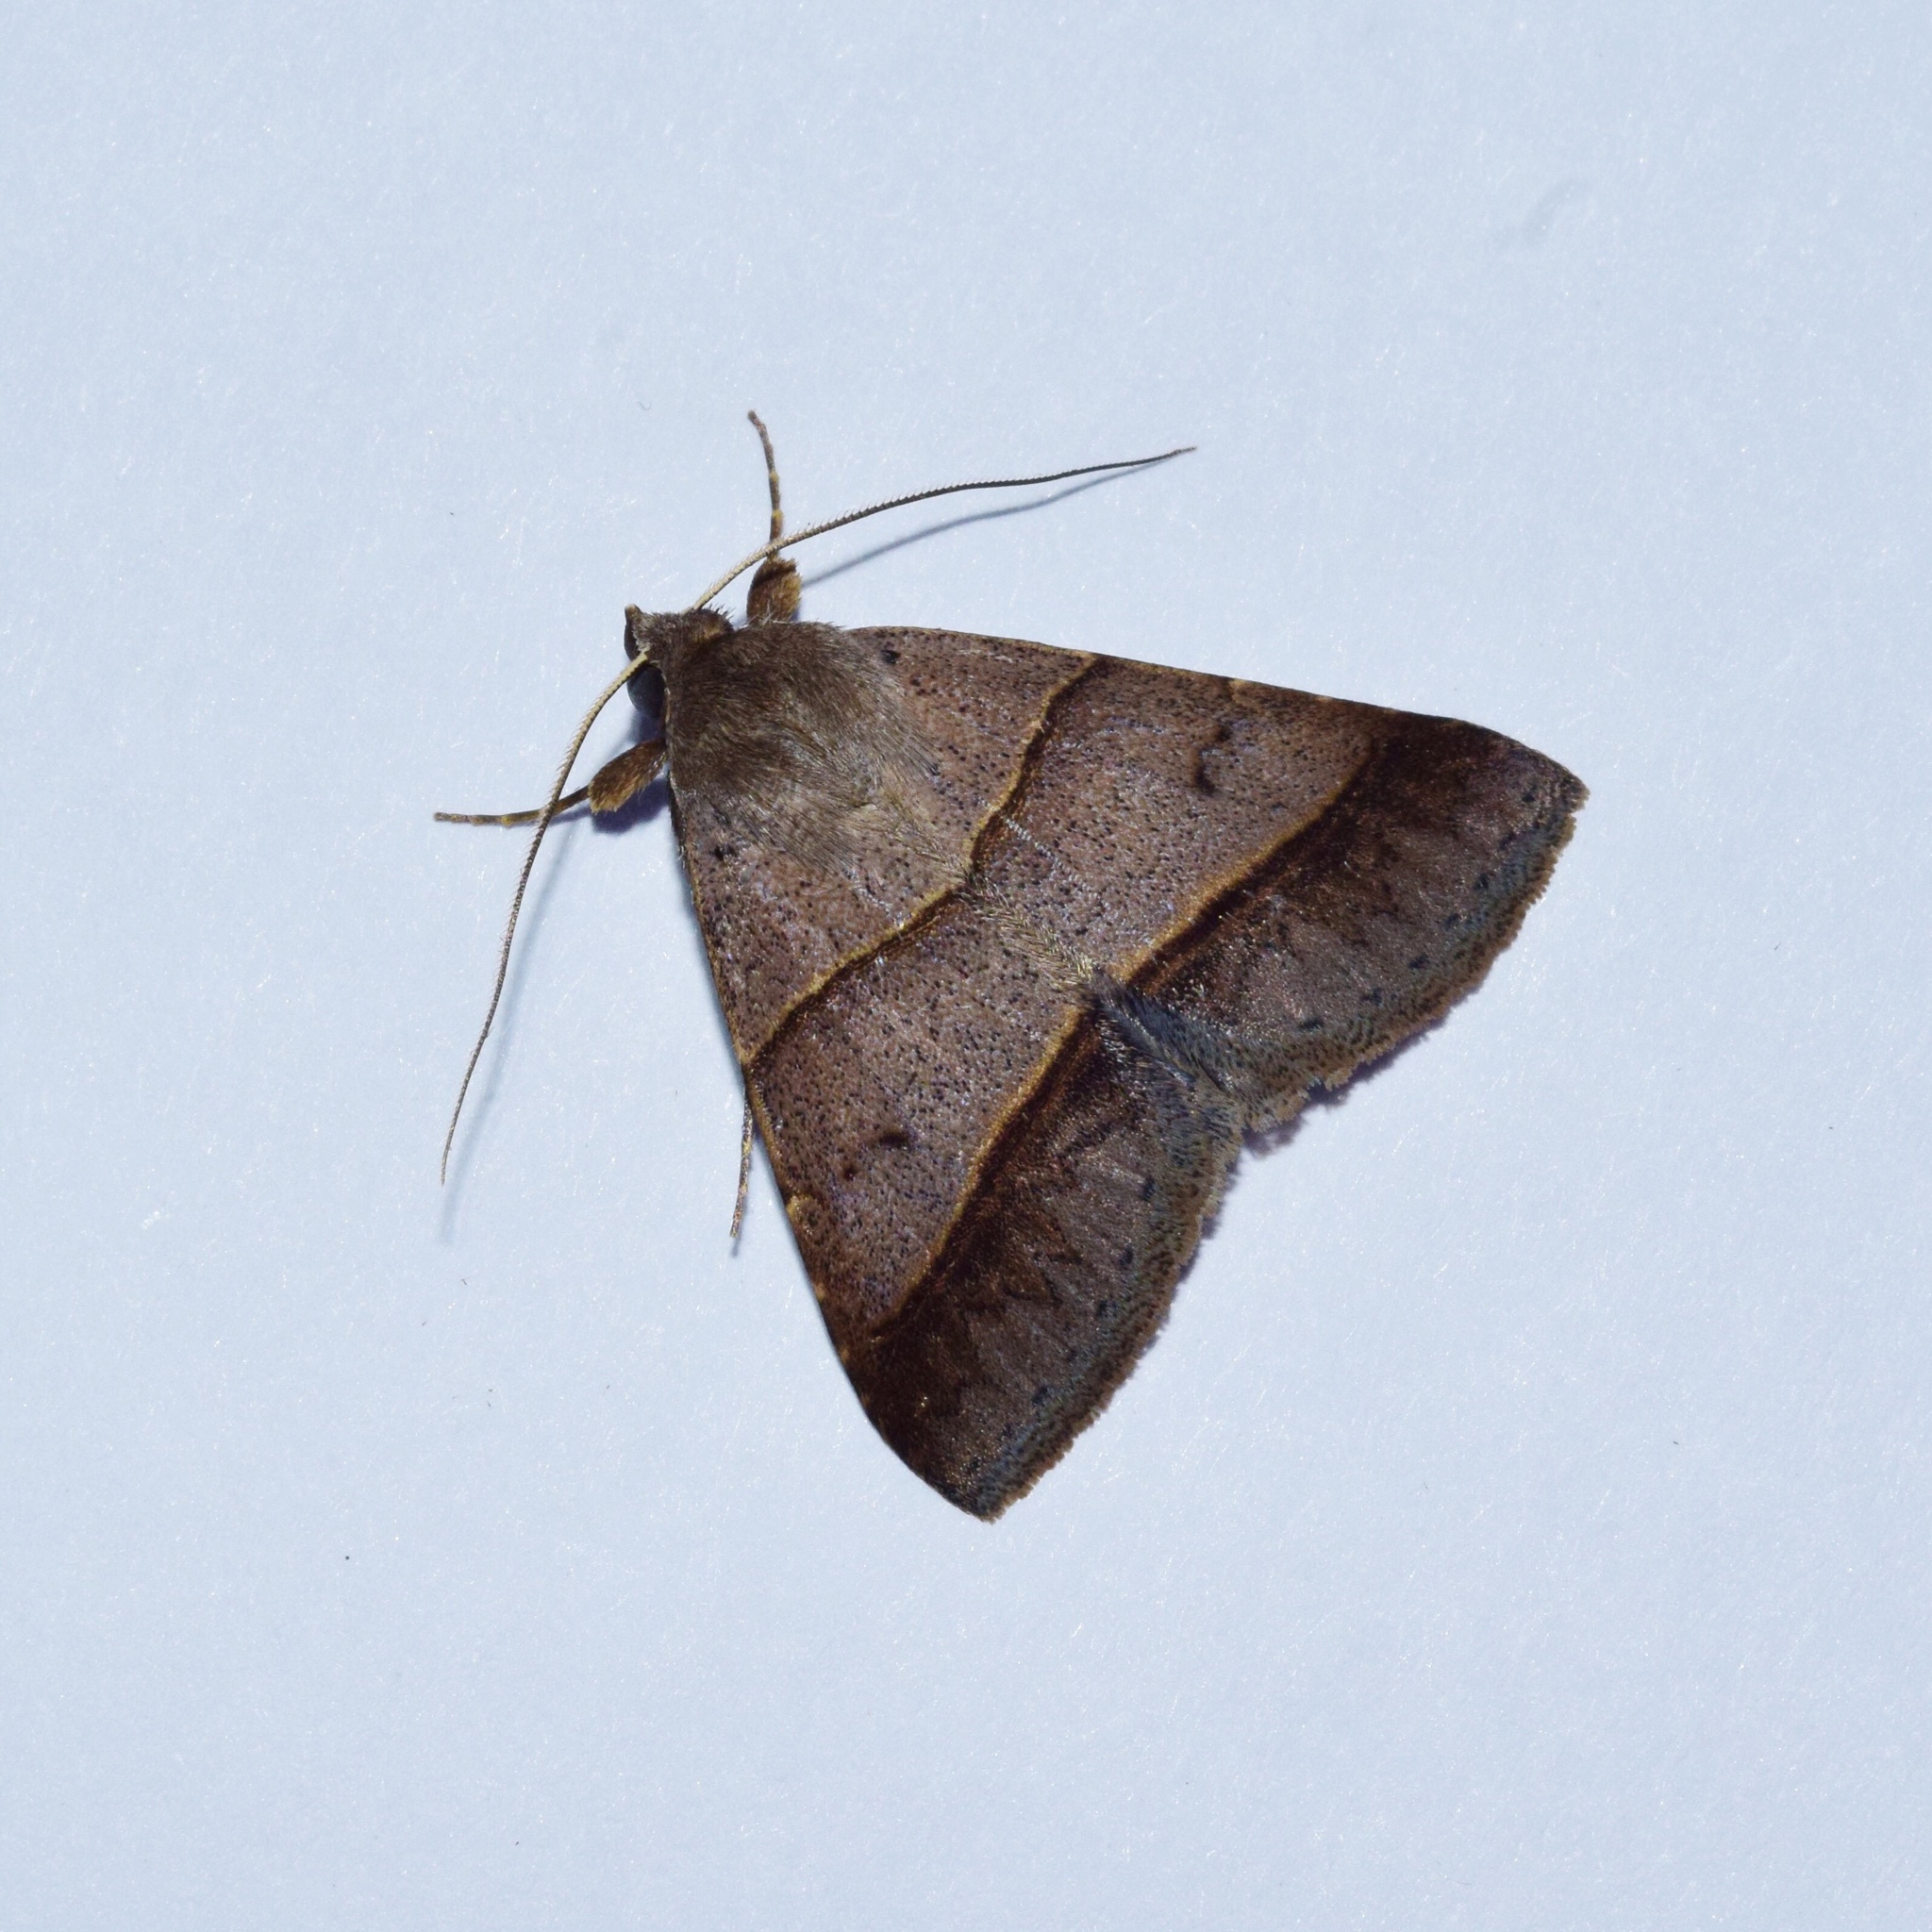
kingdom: Animalia
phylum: Arthropoda
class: Insecta
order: Lepidoptera
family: Erebidae
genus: Plecoptera
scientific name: Plecoptera laniata
